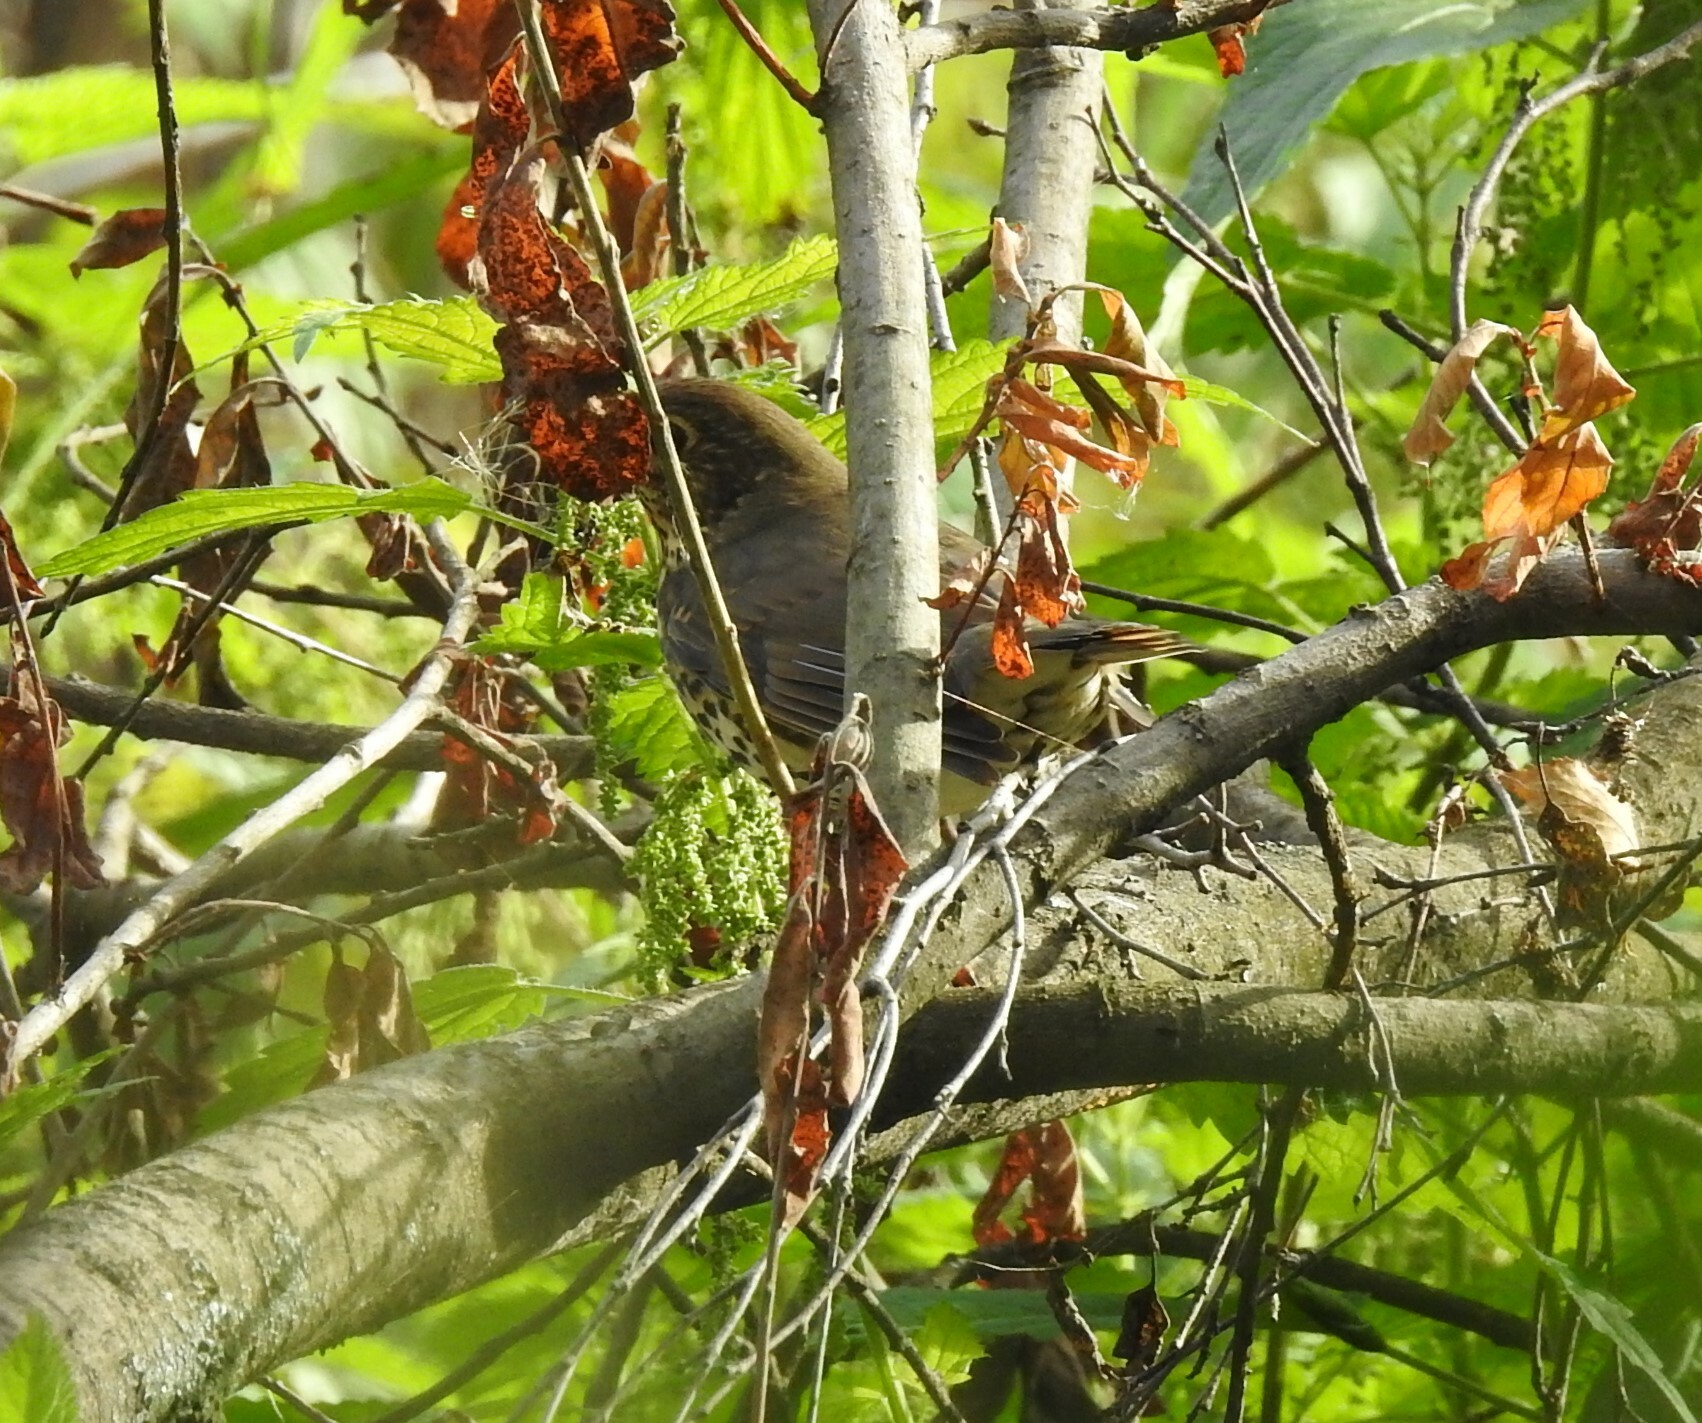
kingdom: Animalia
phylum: Chordata
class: Aves
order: Passeriformes
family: Turdidae
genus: Turdus
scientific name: Turdus philomelos
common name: Song thrush
